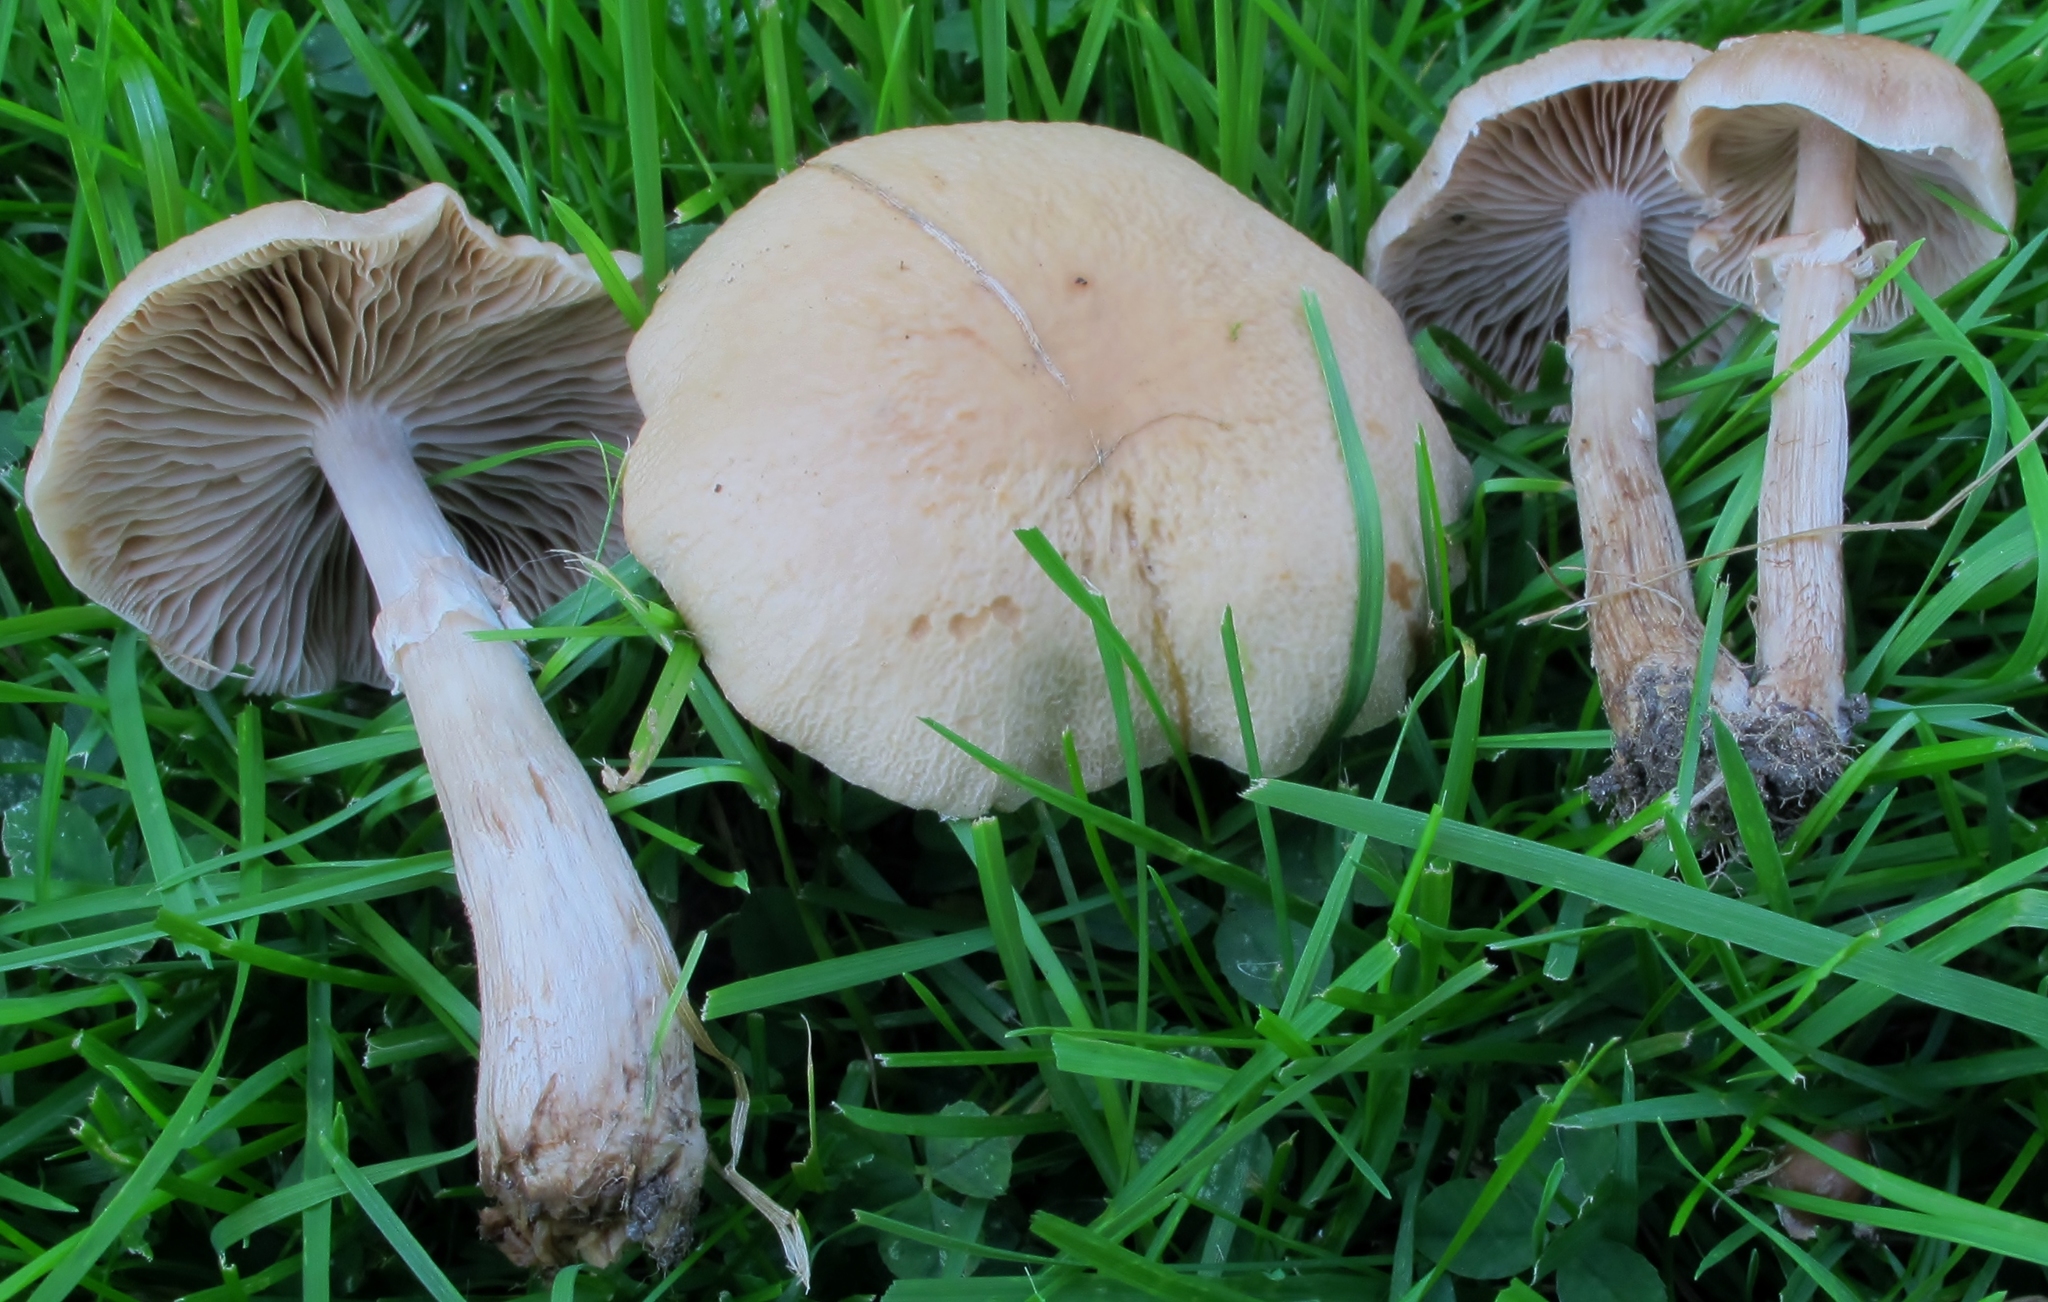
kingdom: Fungi
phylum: Basidiomycota
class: Agaricomycetes
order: Agaricales
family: Tubariaceae
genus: Cyclocybe
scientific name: Cyclocybe erebia
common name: Dark fieldcap
